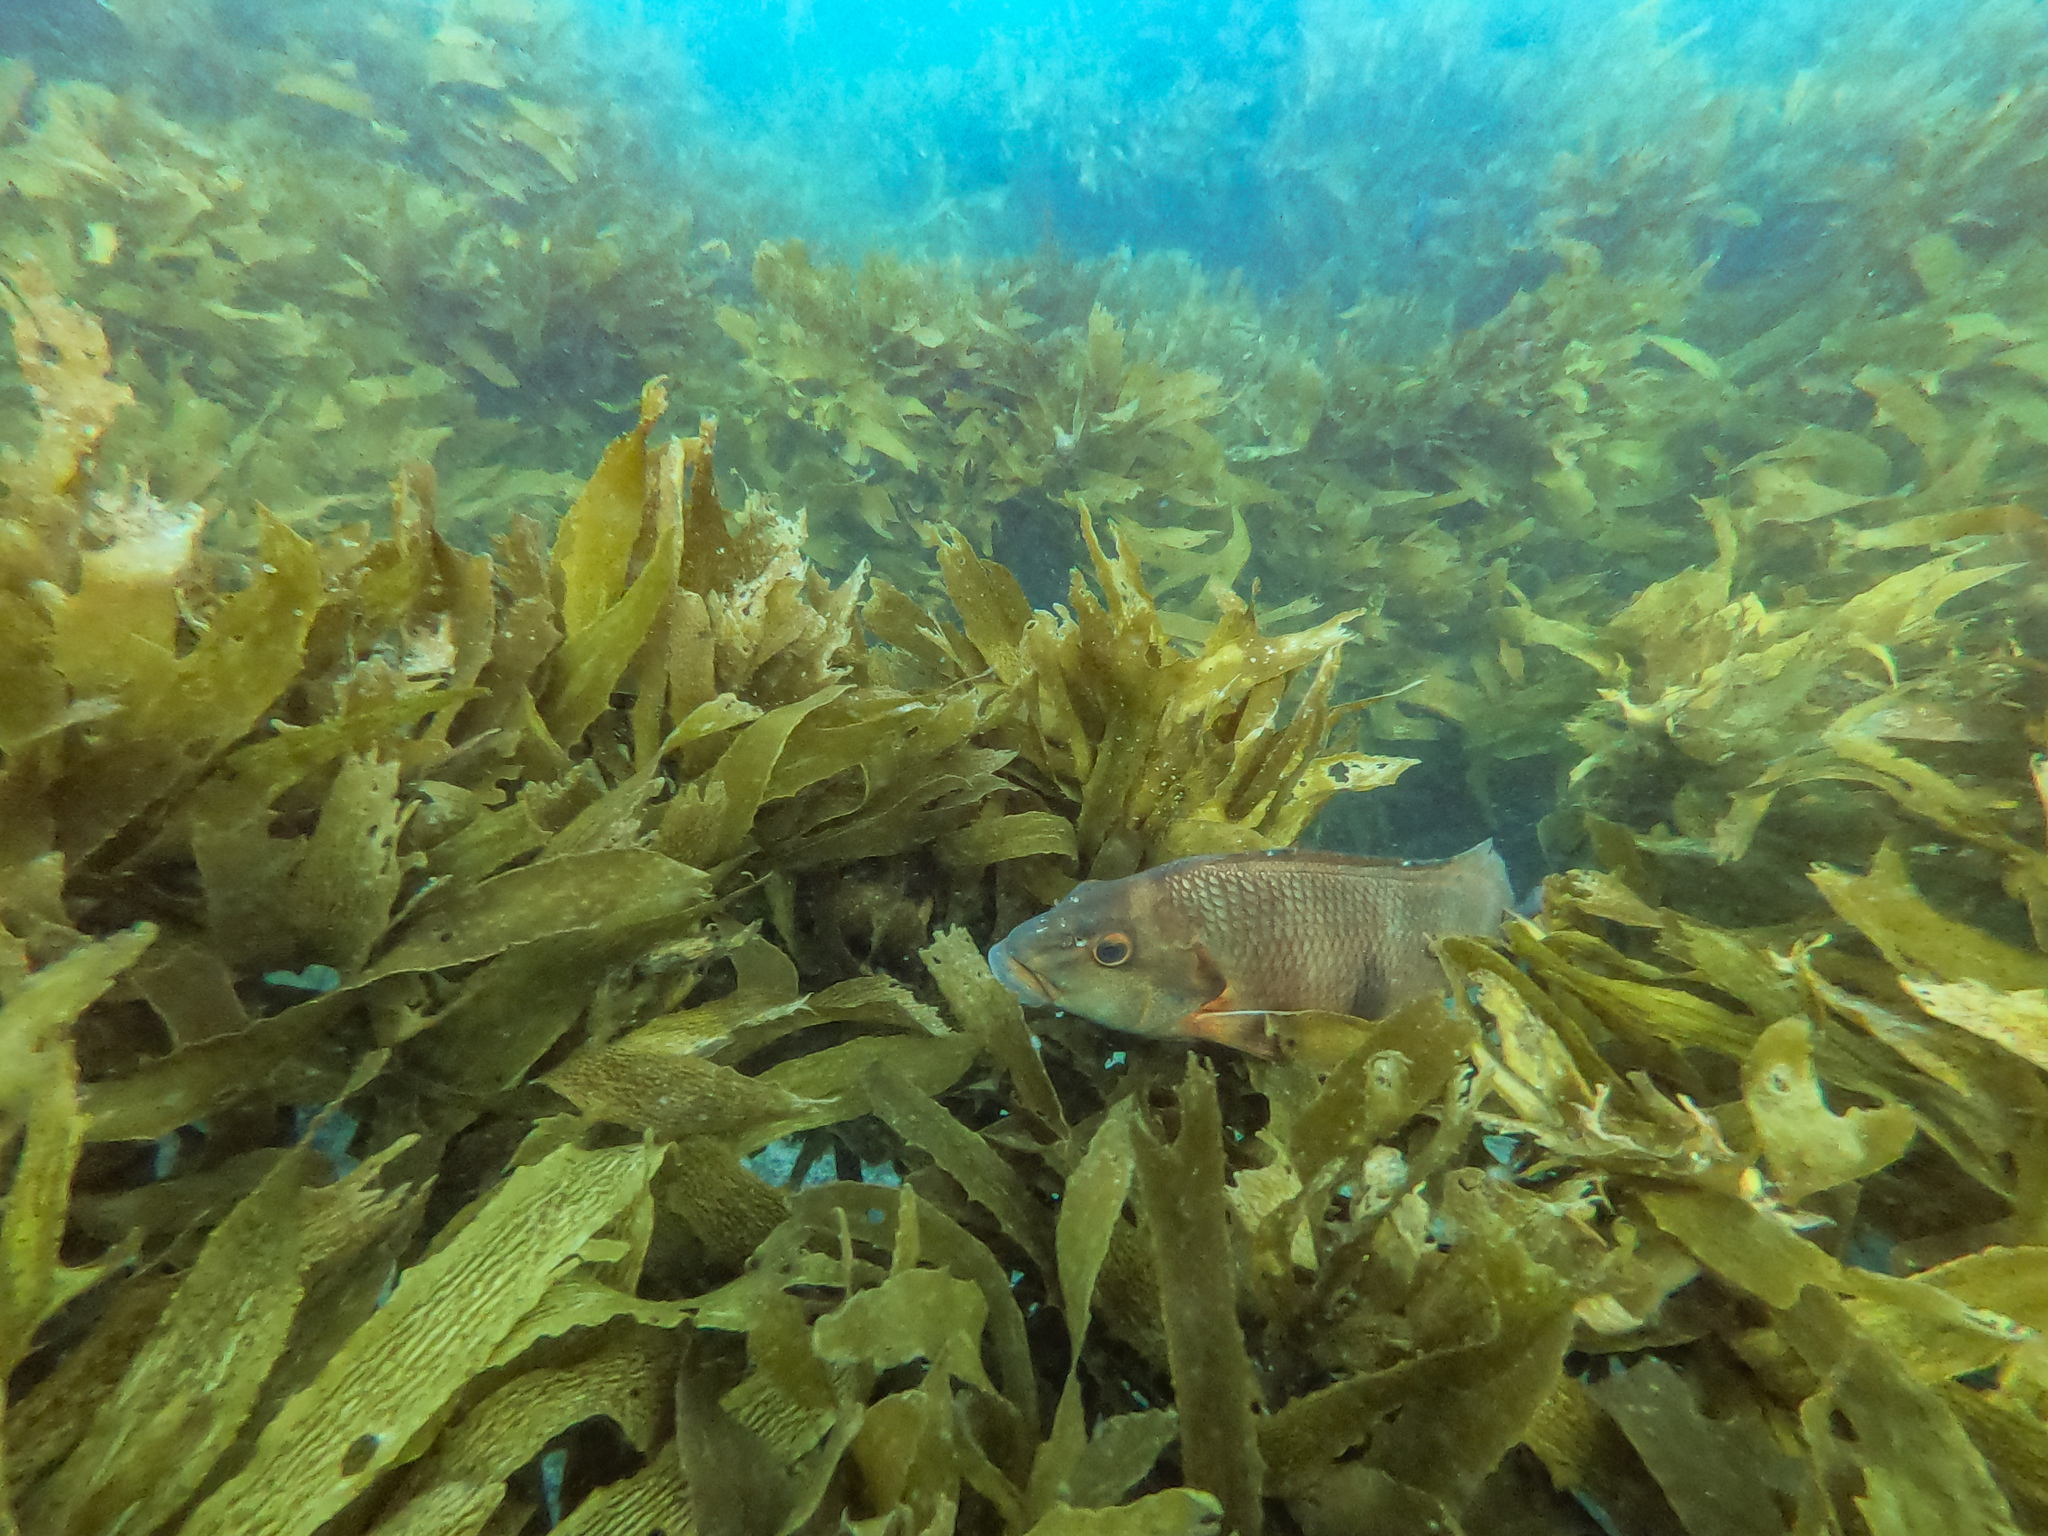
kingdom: Animalia
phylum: Chordata
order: Perciformes
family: Cheilodactylidae
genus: Cheilodactylus
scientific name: Cheilodactylus spectabilis
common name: Red moki
